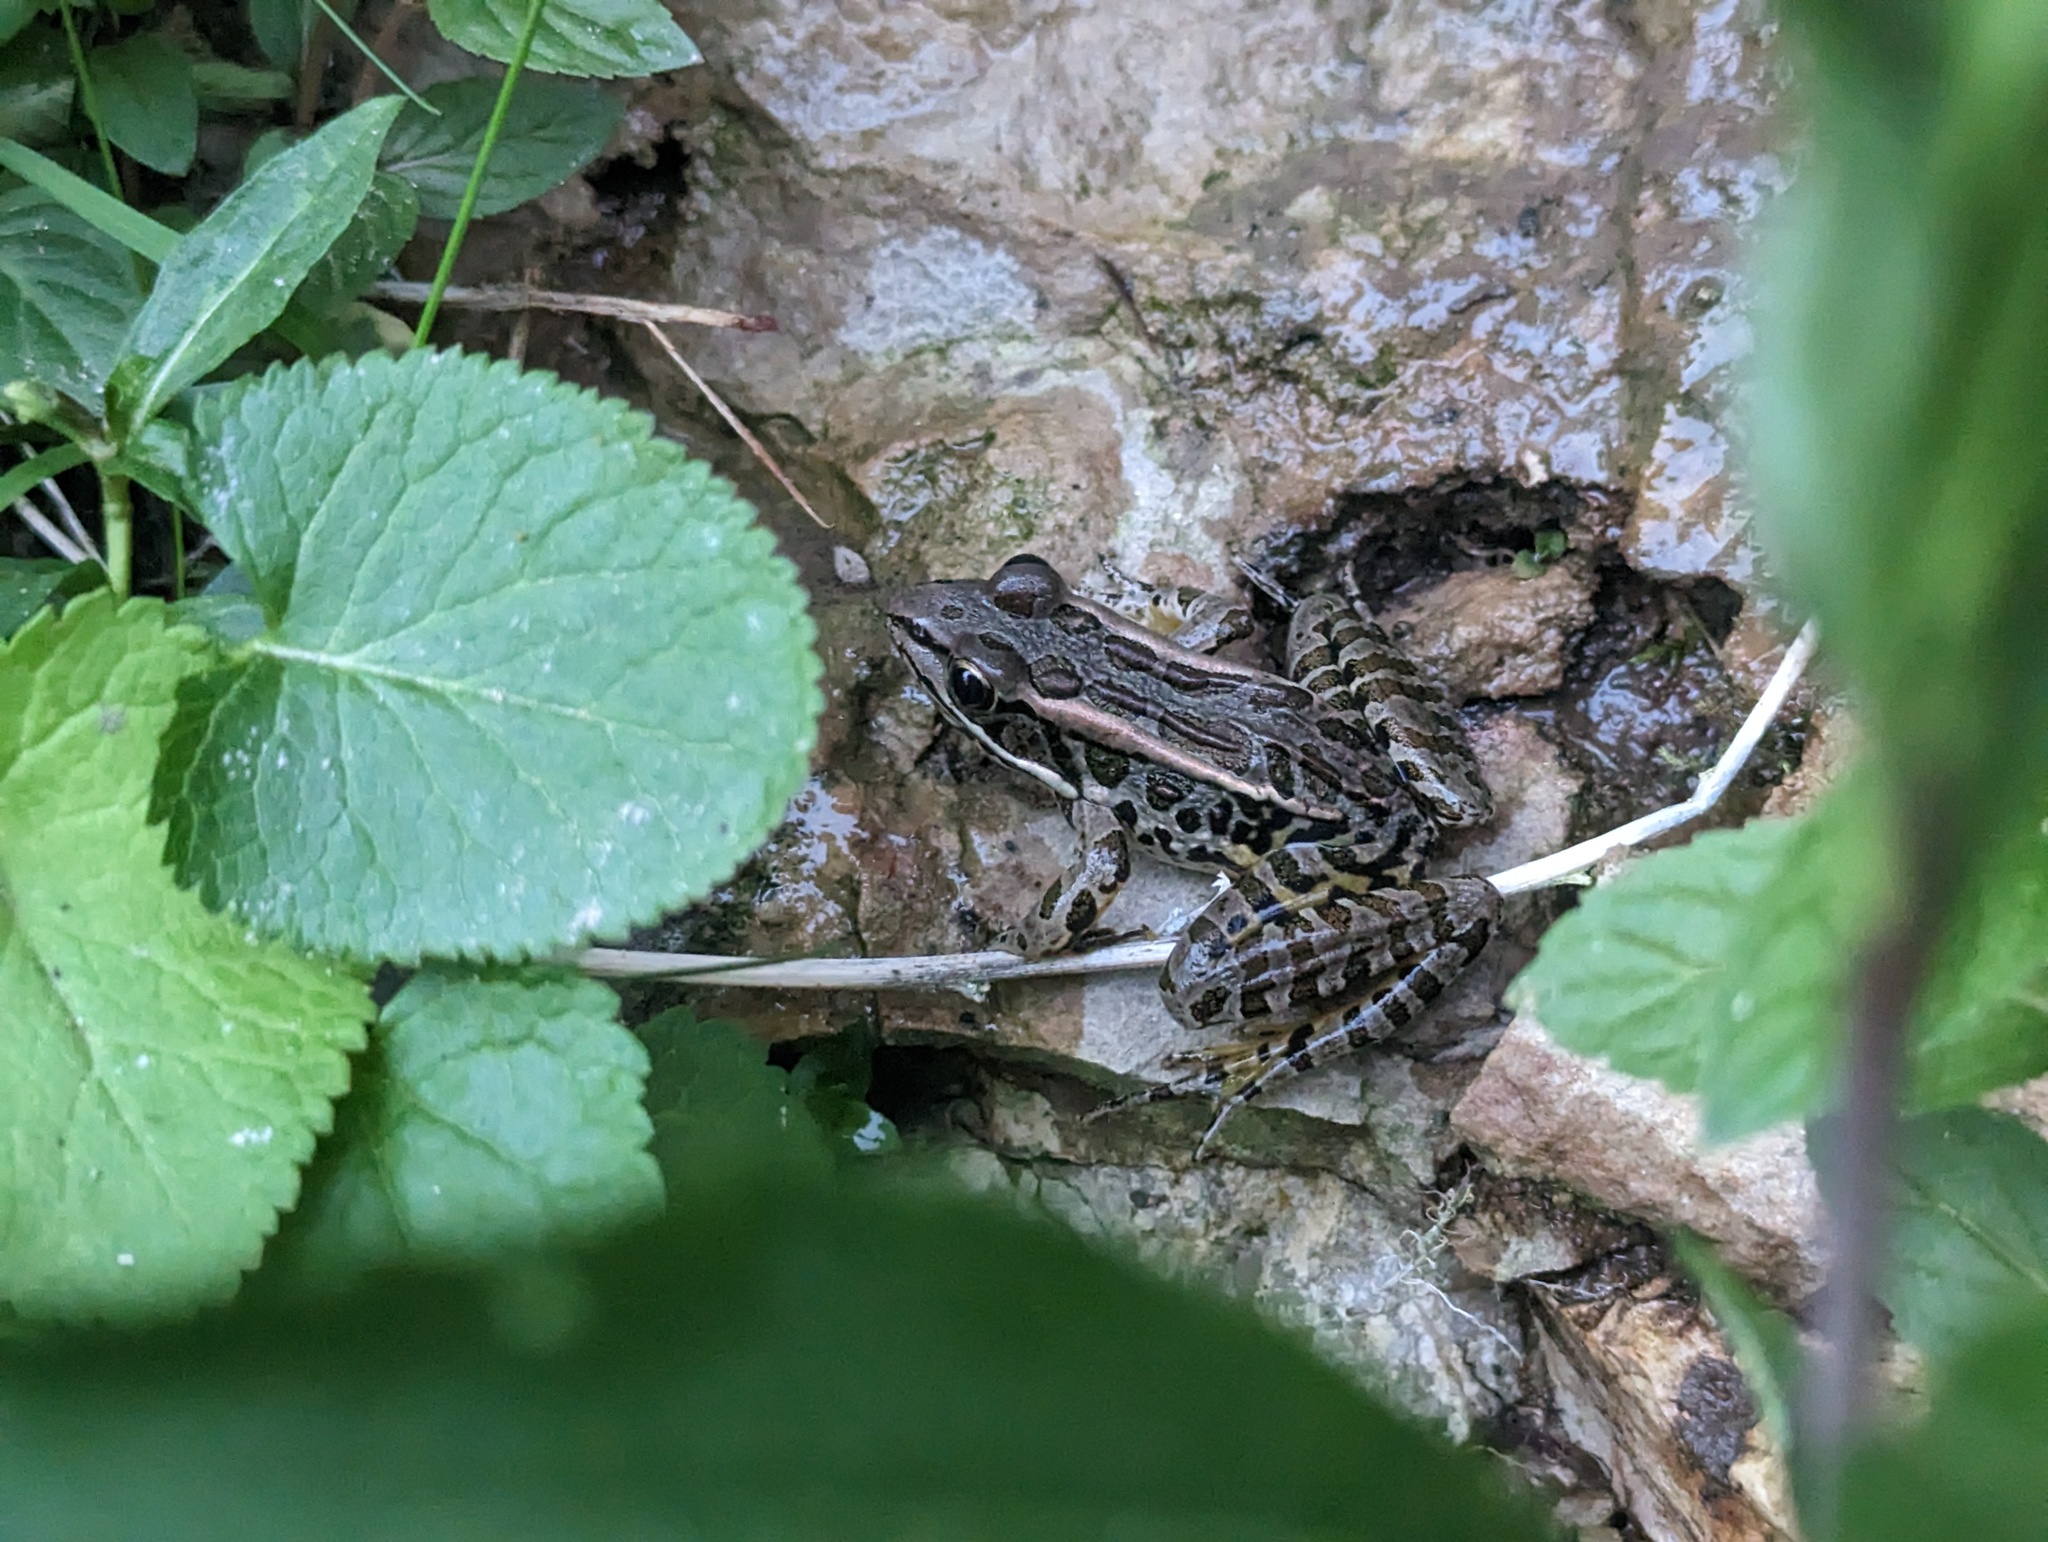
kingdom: Animalia
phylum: Chordata
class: Amphibia
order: Anura
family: Ranidae
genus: Lithobates
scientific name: Lithobates palustris
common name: Pickerel frog
